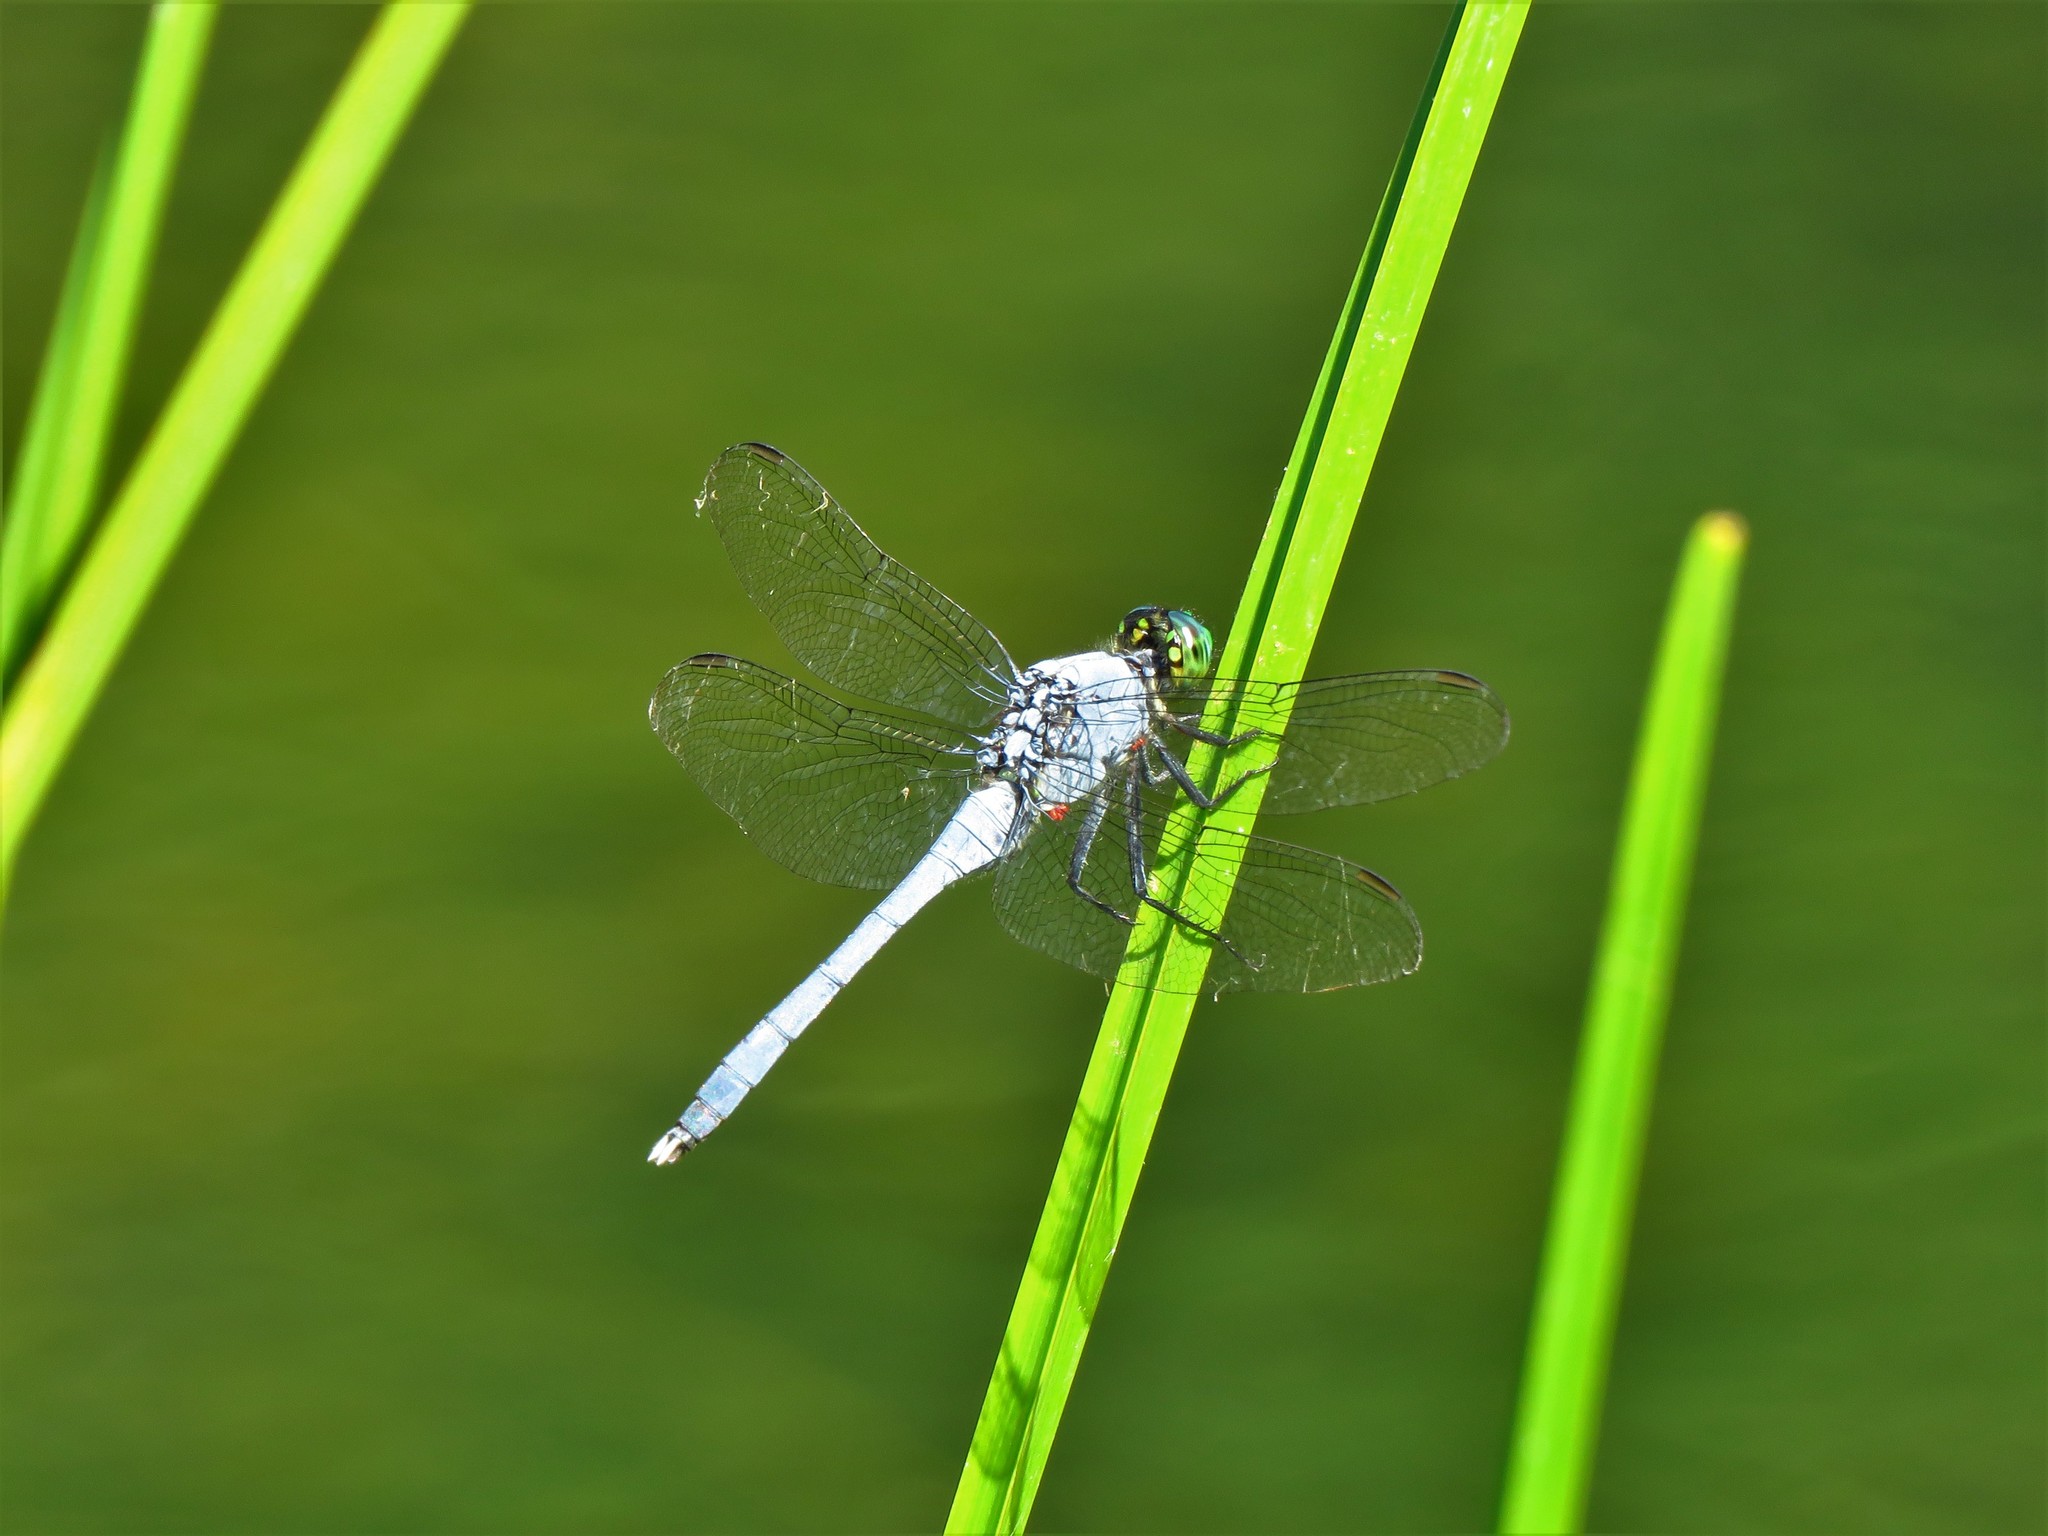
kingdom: Animalia
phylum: Arthropoda
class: Insecta
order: Odonata
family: Libellulidae
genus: Erythemis
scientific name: Erythemis simplicicollis
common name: Eastern pondhawk
